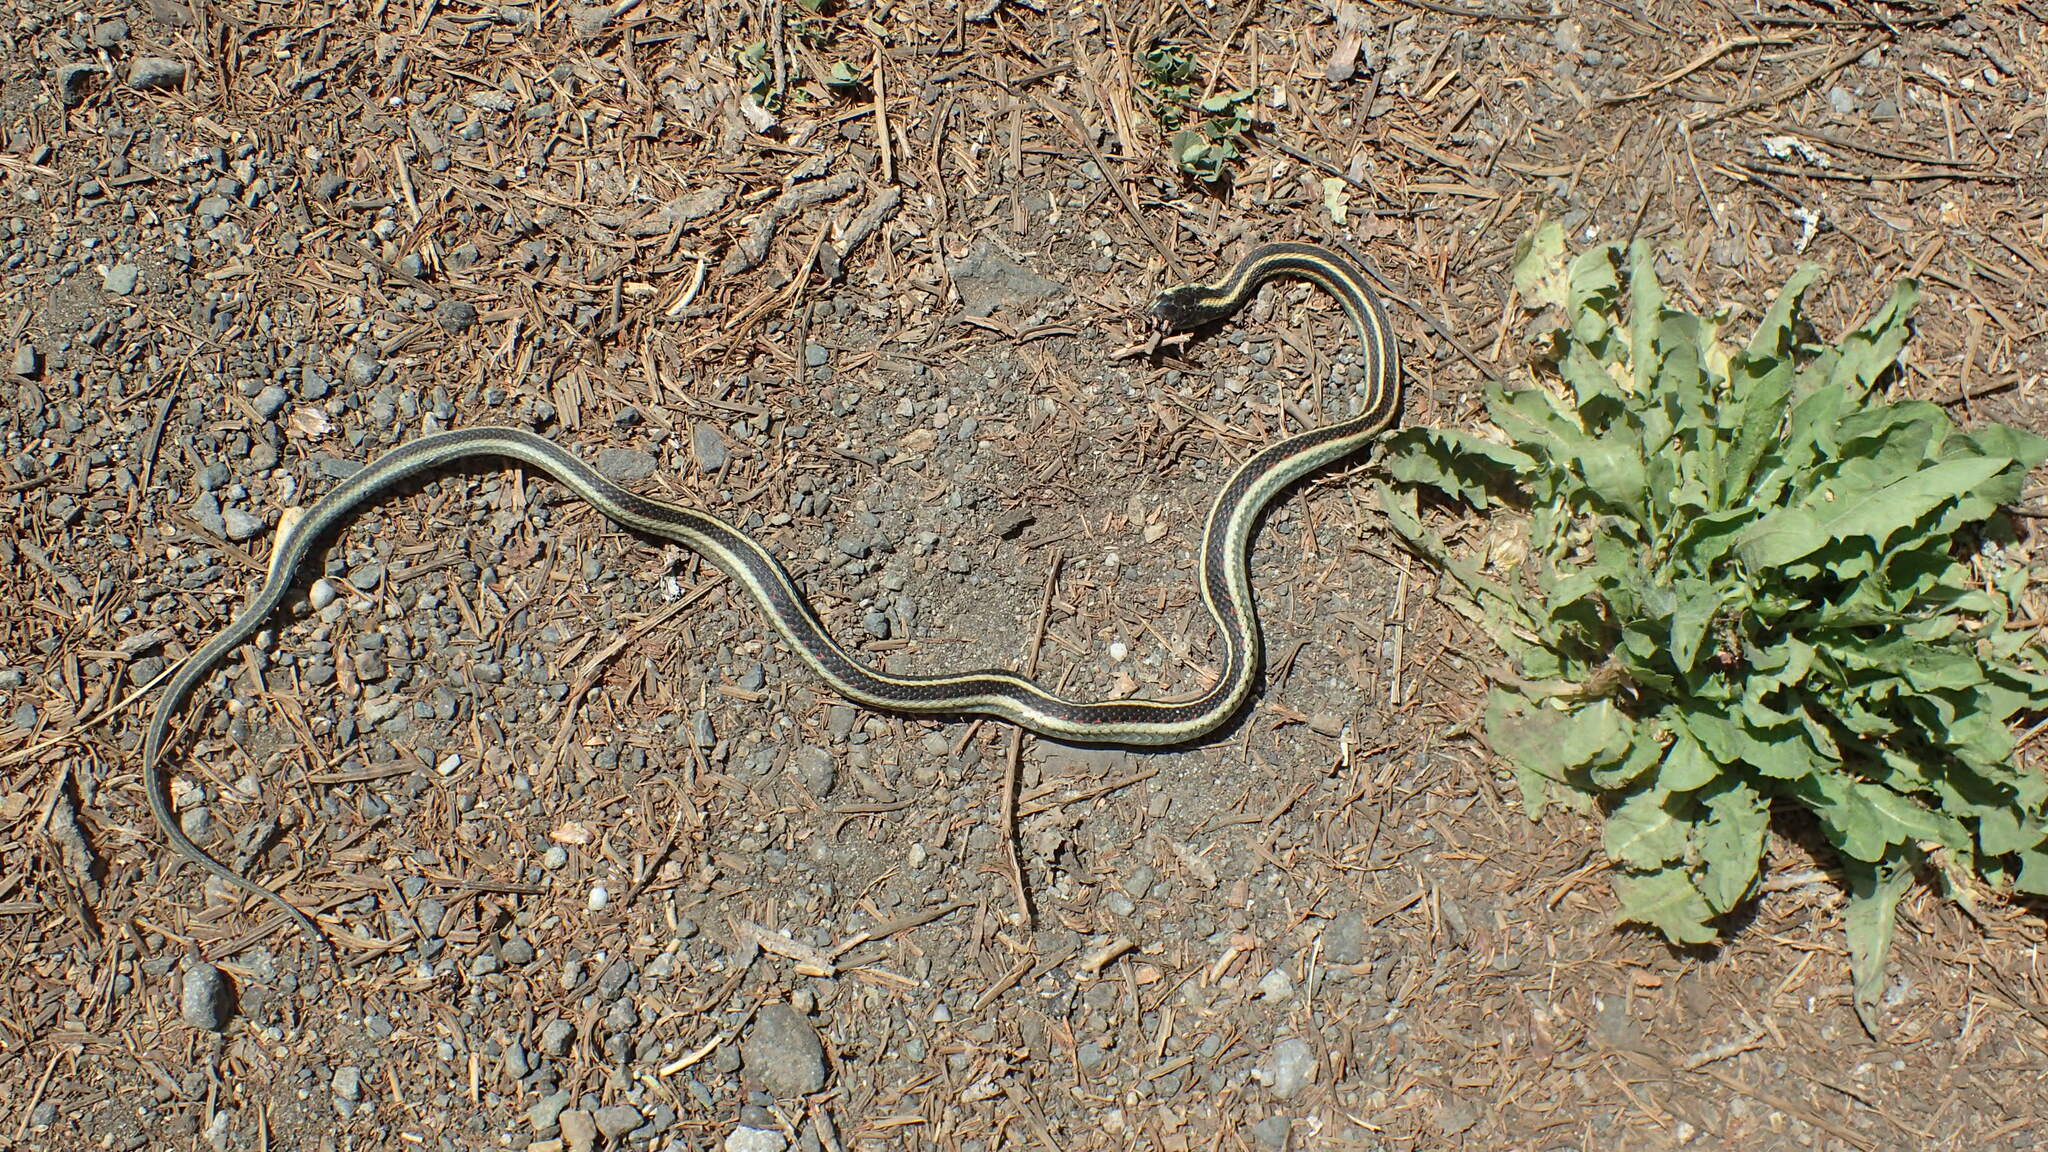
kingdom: Animalia
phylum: Chordata
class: Squamata
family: Colubridae
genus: Thamnophis
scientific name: Thamnophis sirtalis
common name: Common garter snake
